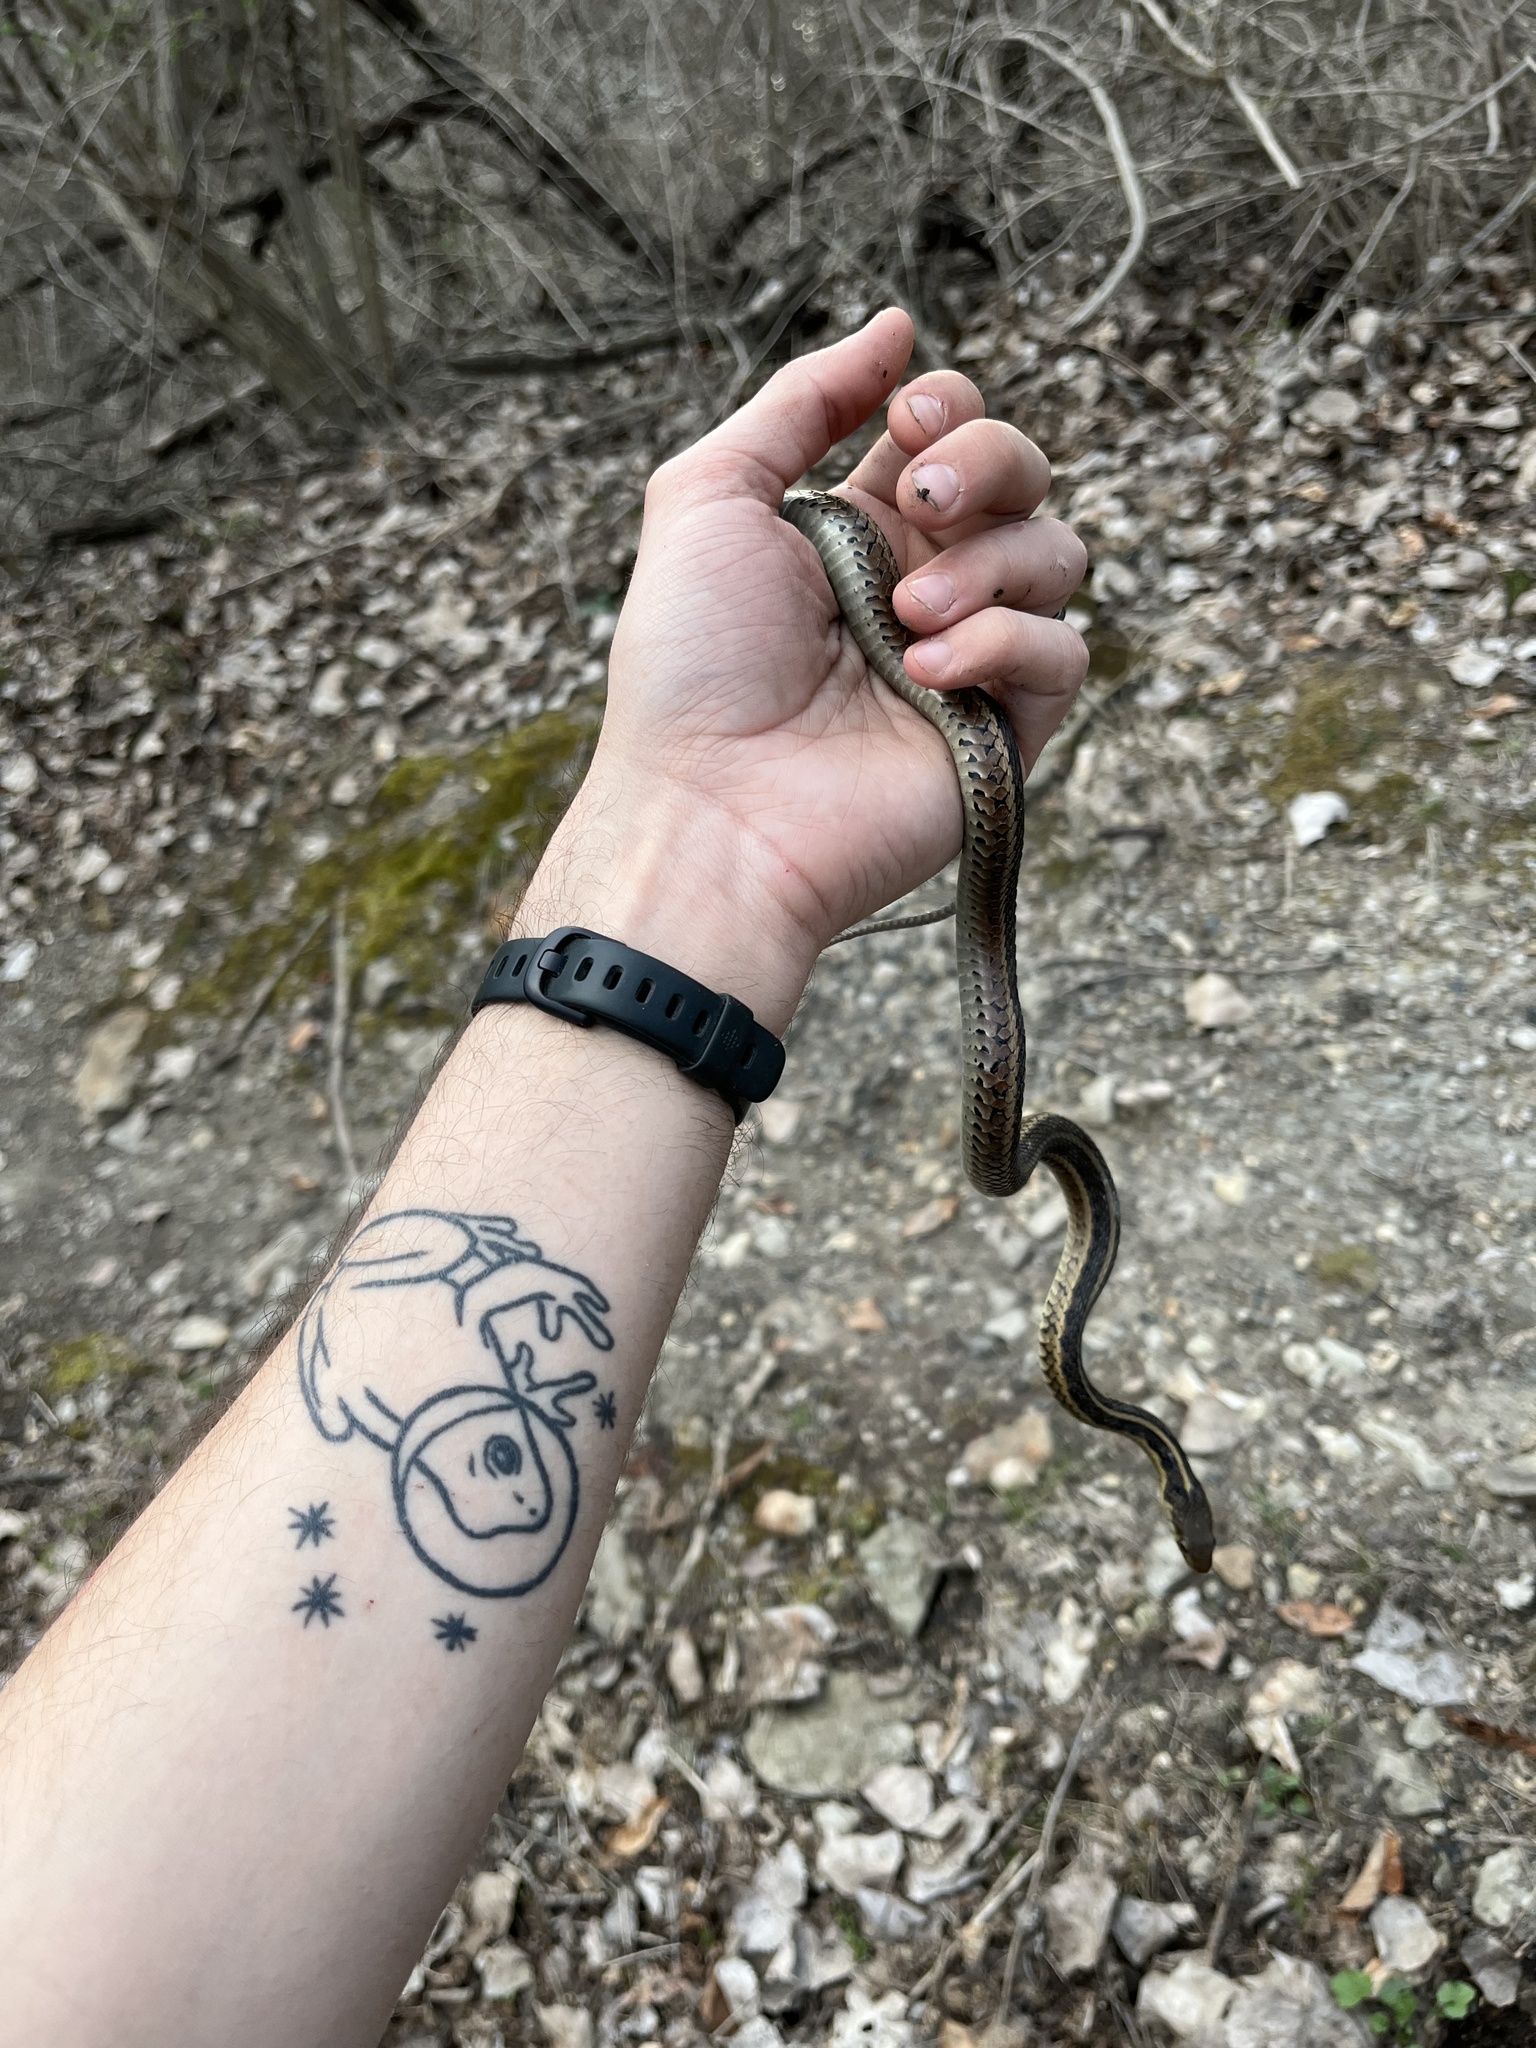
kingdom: Animalia
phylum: Chordata
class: Squamata
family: Colubridae
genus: Thamnophis
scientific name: Thamnophis sirtalis
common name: Common garter snake
